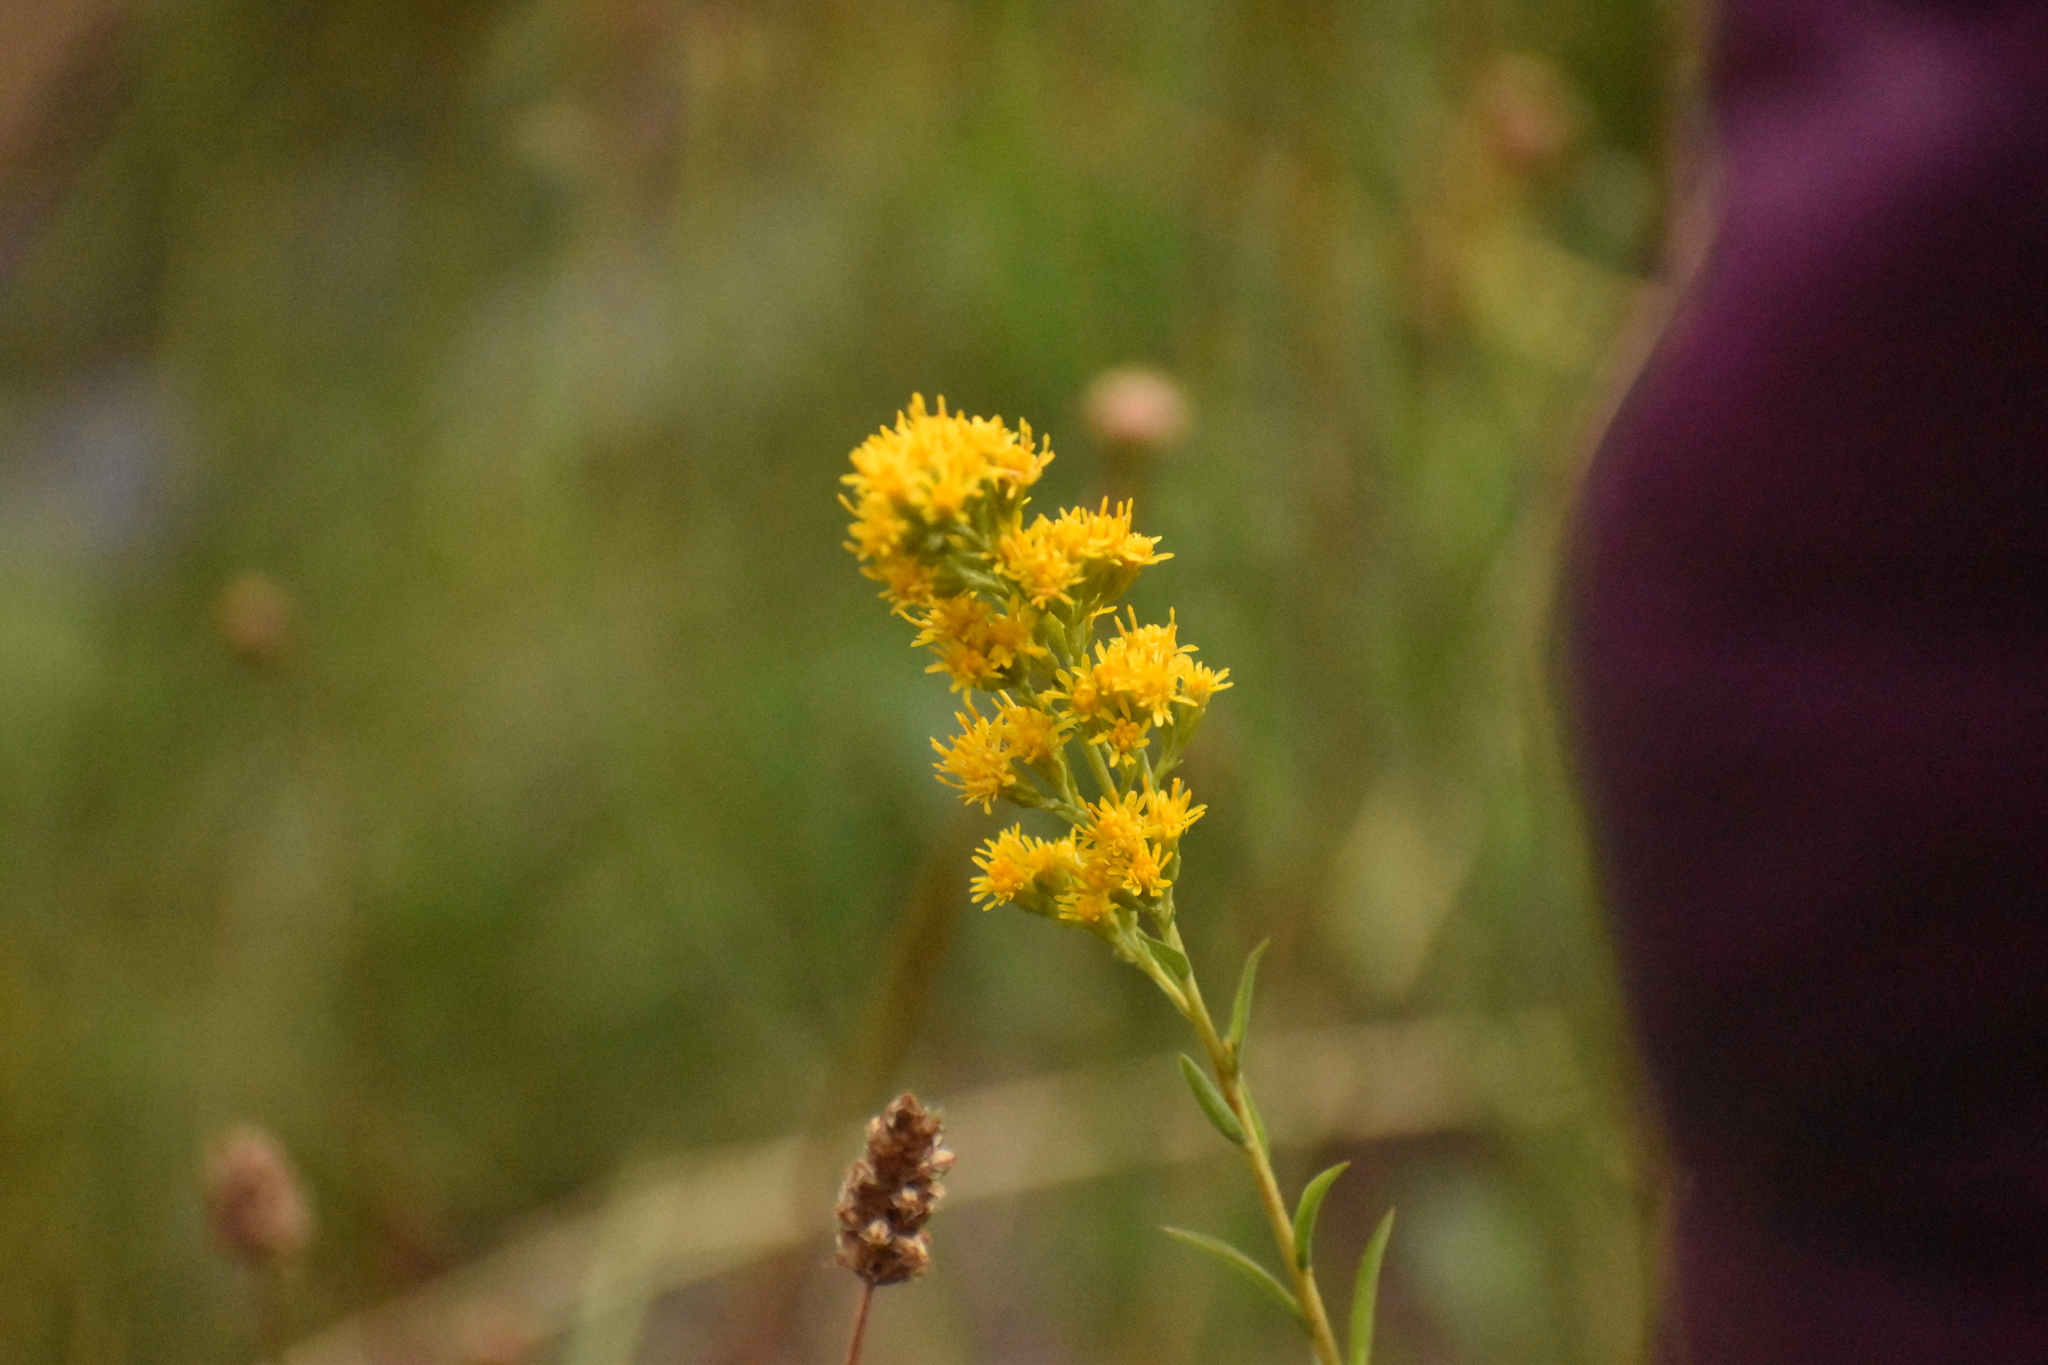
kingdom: Plantae
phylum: Tracheophyta
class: Magnoliopsida
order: Asterales
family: Asteraceae
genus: Solidago
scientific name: Solidago chilensis
